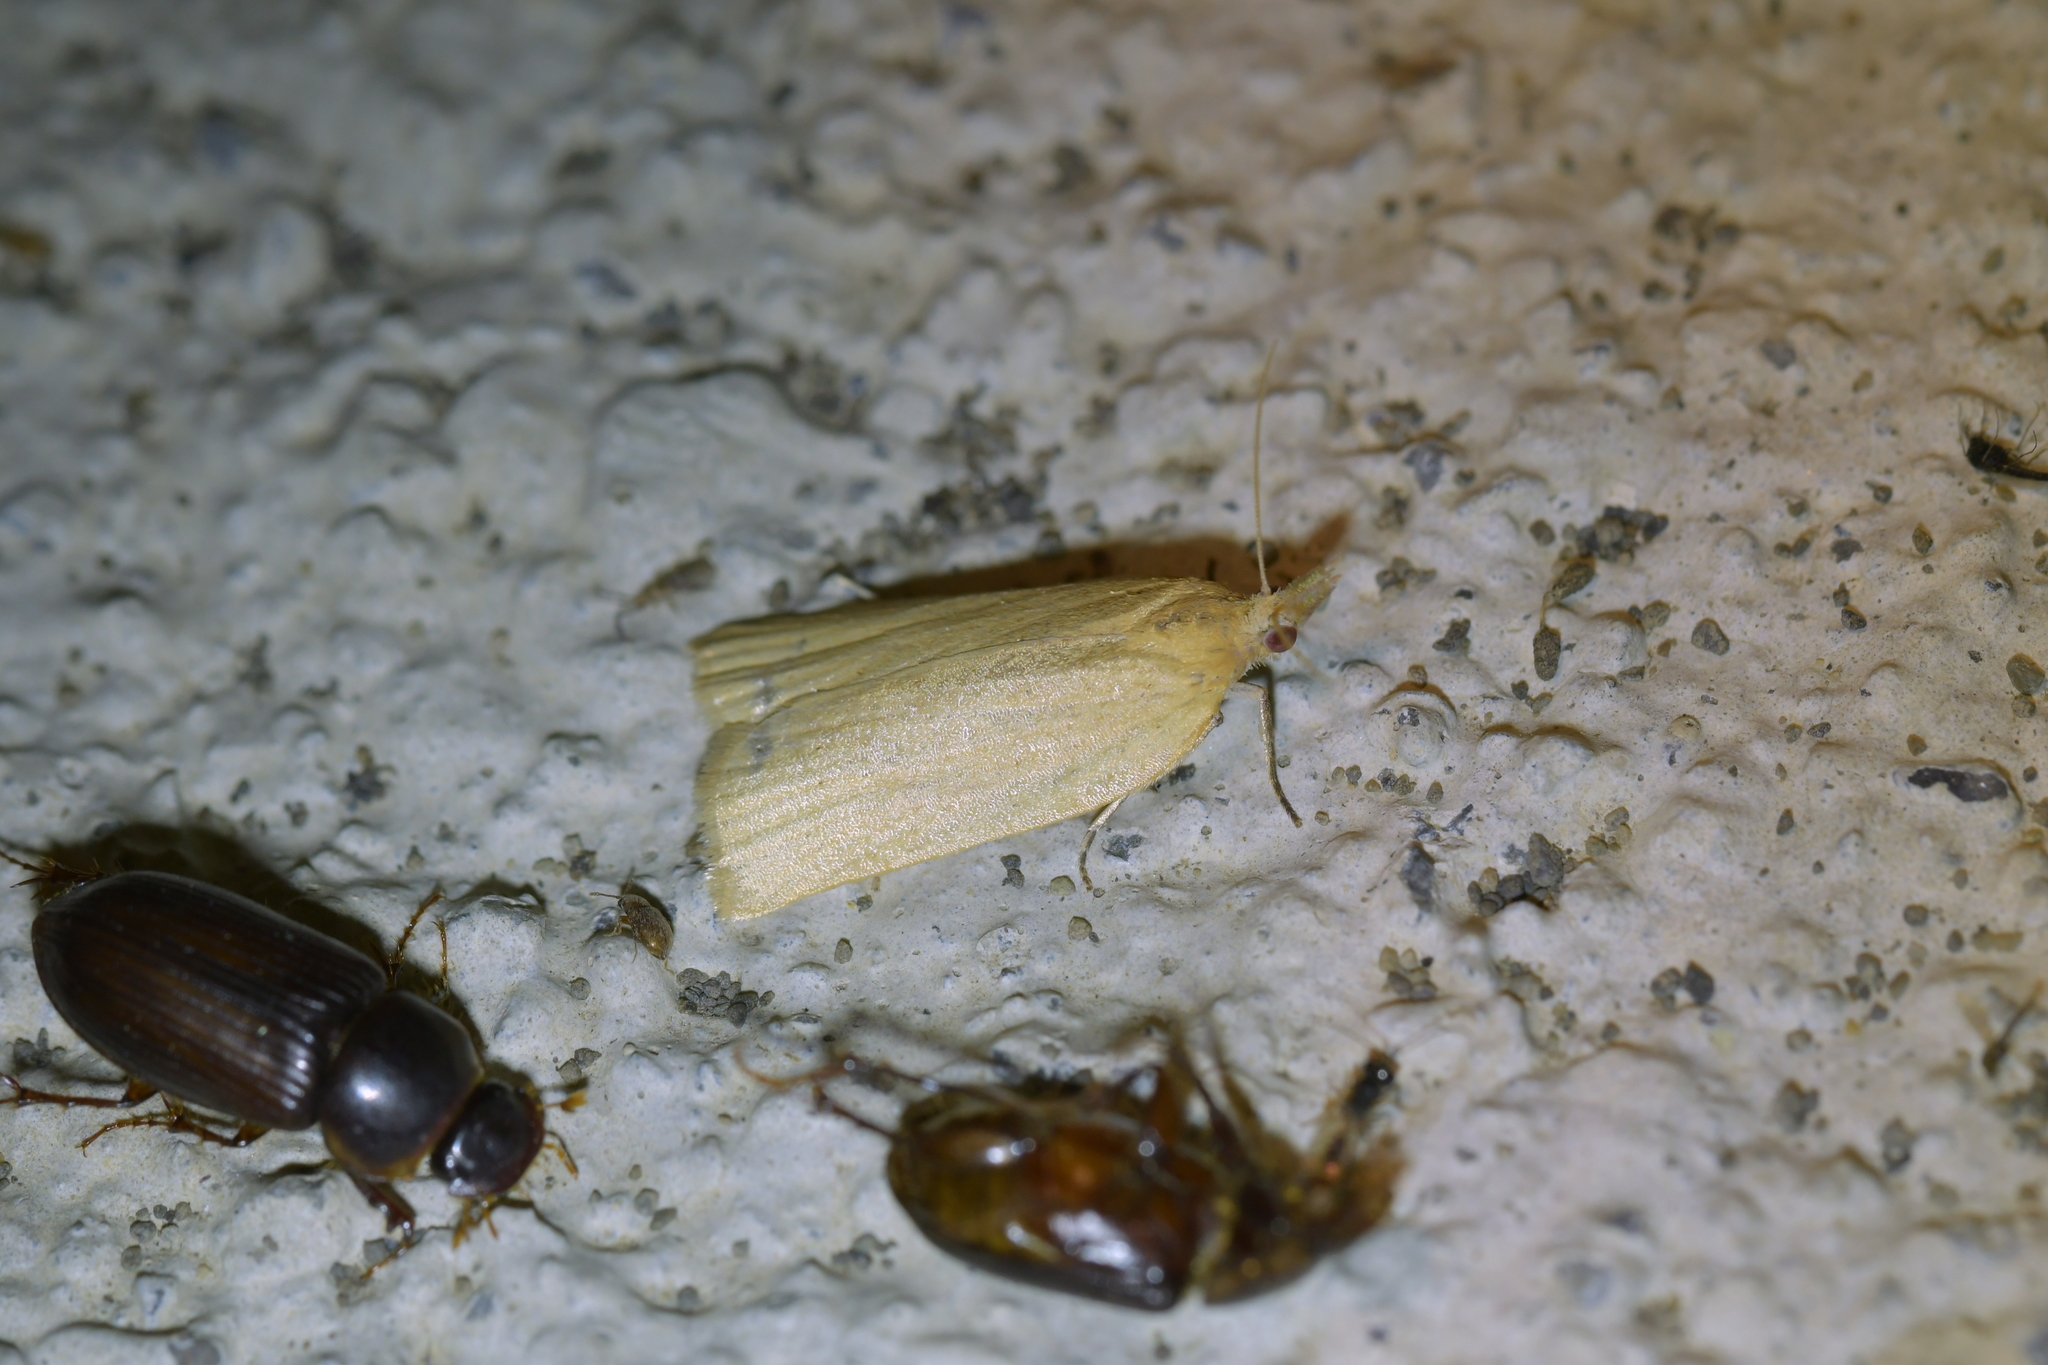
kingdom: Animalia
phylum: Arthropoda
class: Insecta
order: Lepidoptera
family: Tortricidae
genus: Clepsis
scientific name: Clepsis
